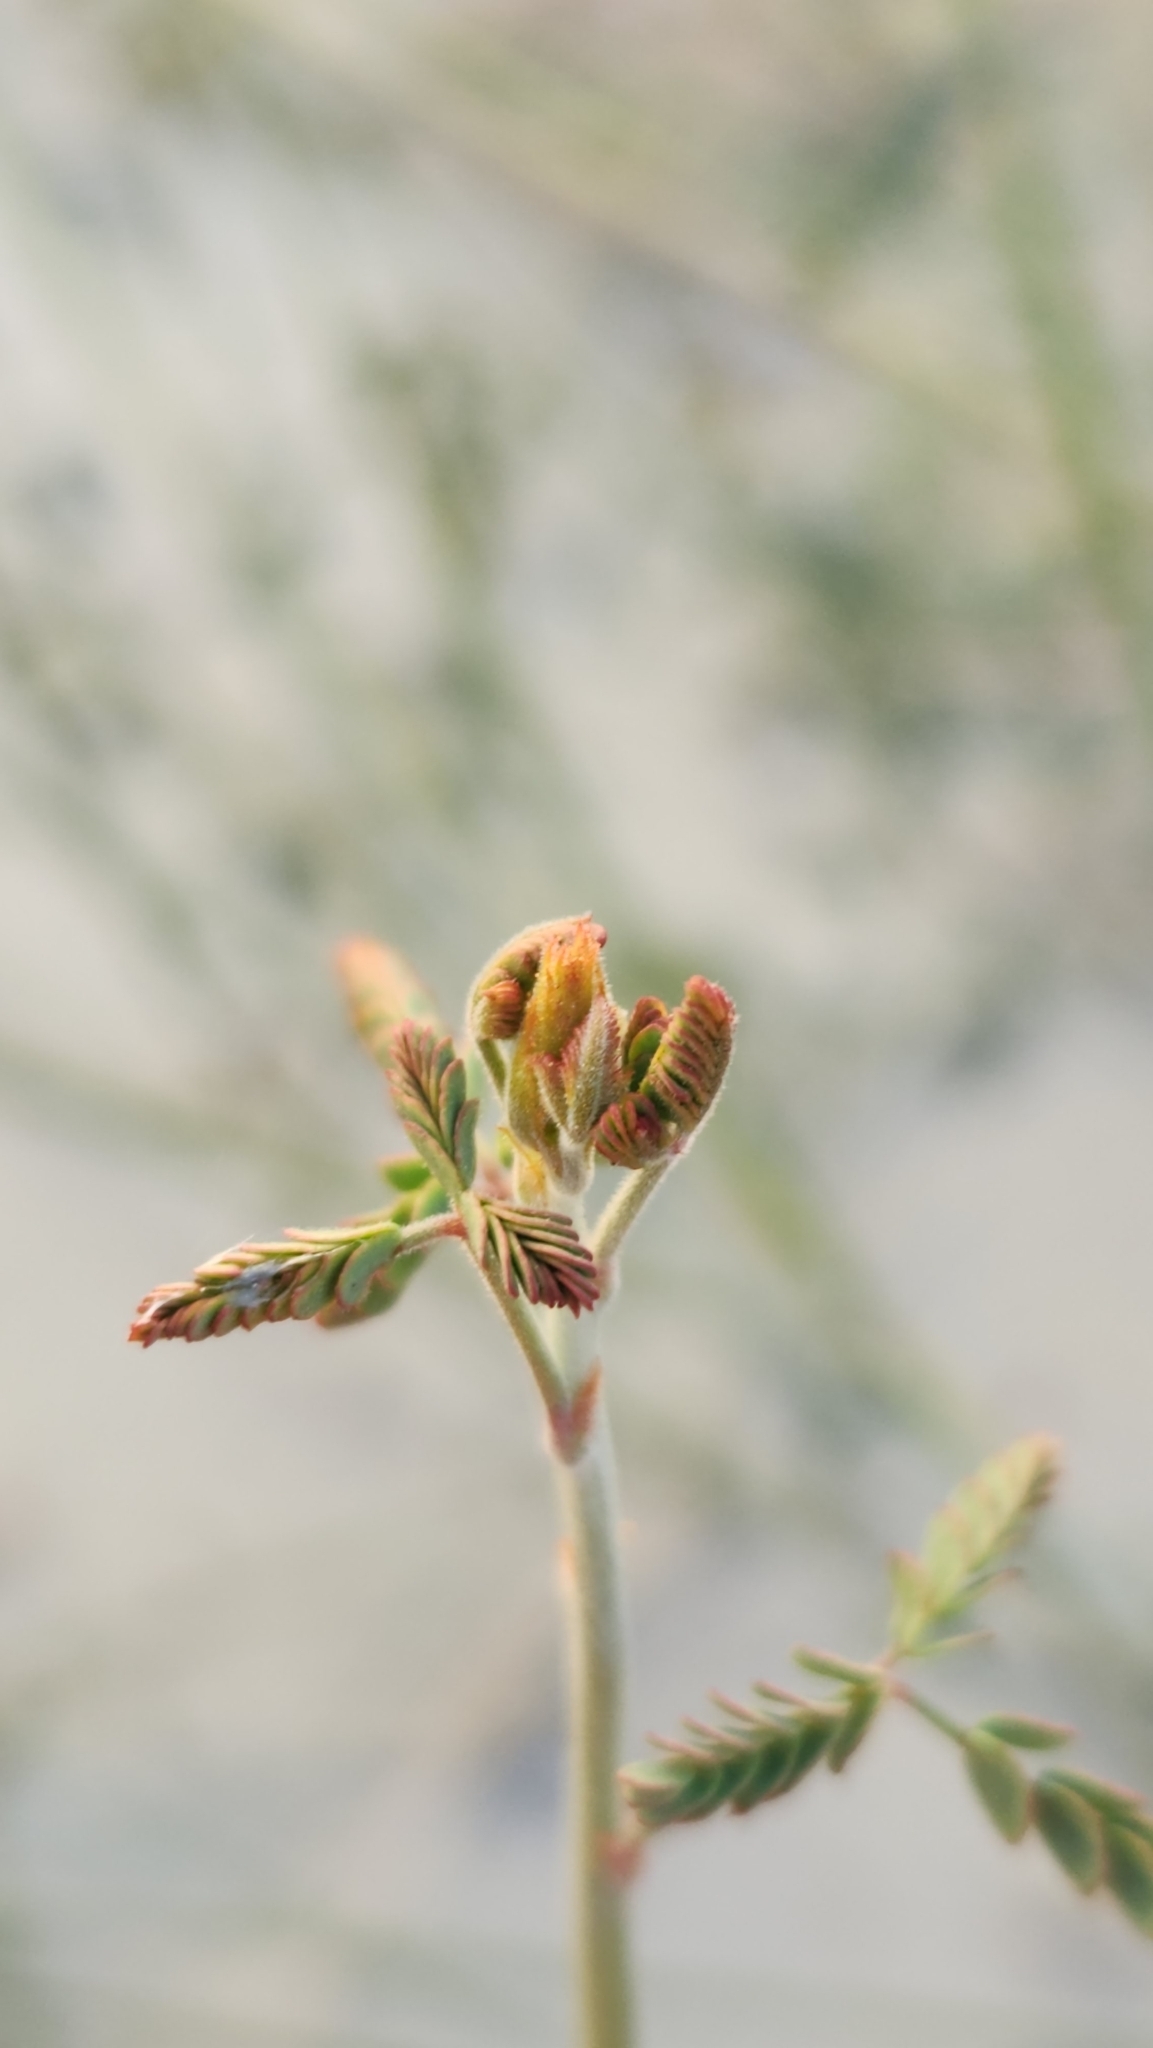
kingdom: Plantae
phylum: Tracheophyta
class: Magnoliopsida
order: Fabales
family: Fabaceae
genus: Hoffmannseggia
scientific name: Hoffmannseggia microphylla
